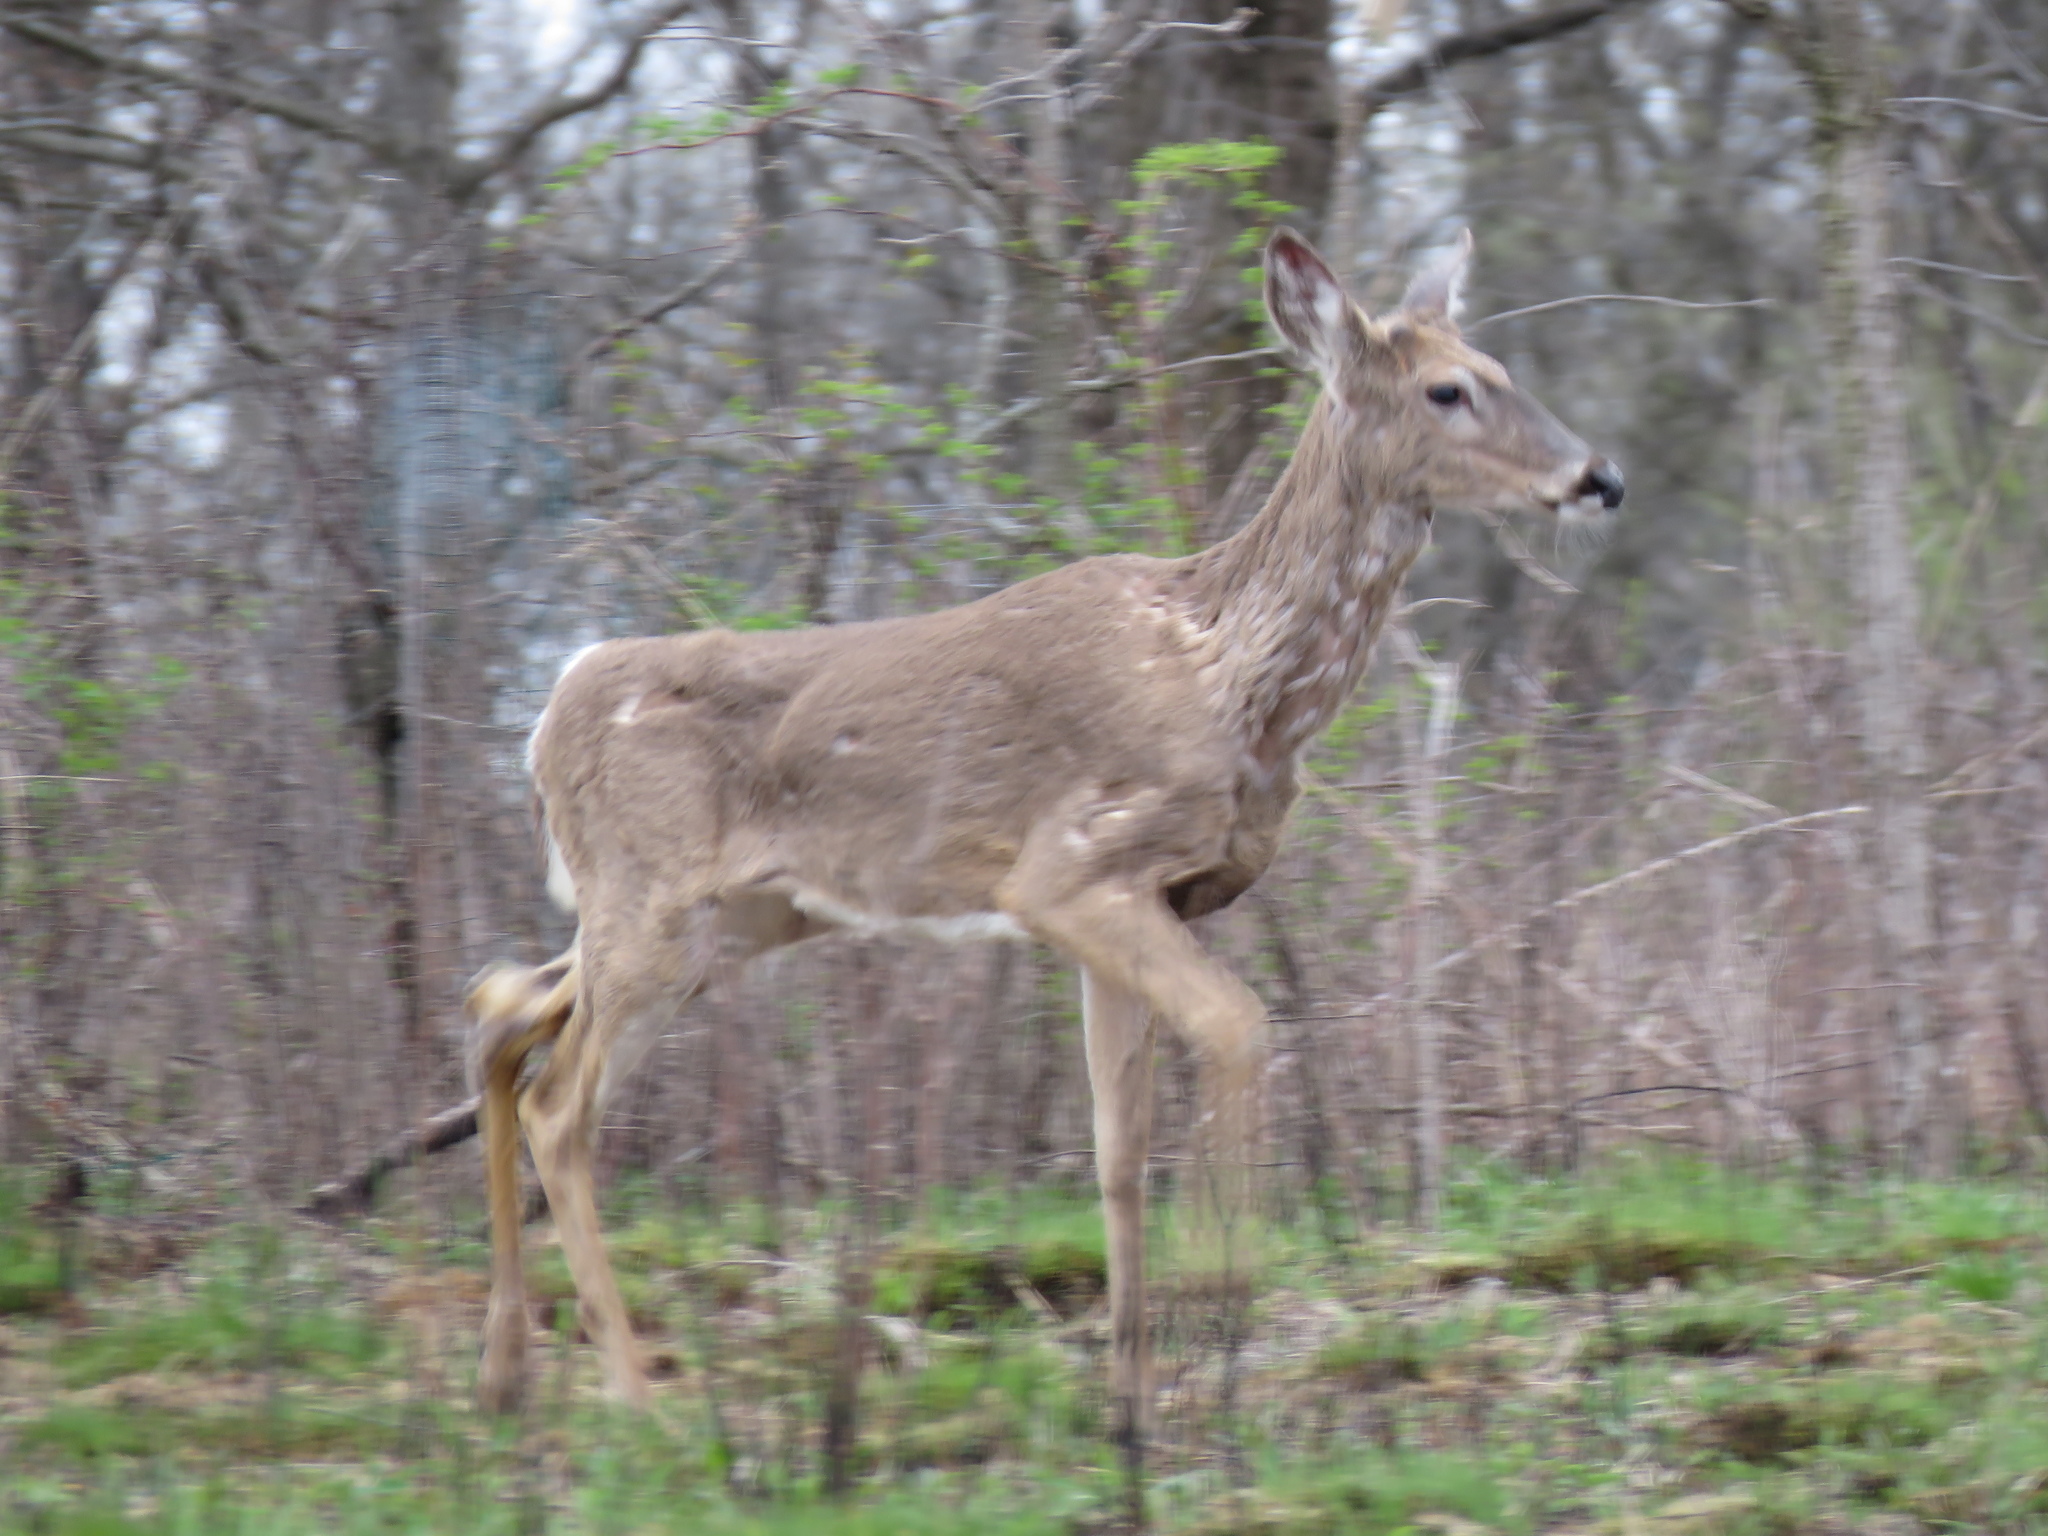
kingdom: Animalia
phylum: Chordata
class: Mammalia
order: Artiodactyla
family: Cervidae
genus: Odocoileus
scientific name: Odocoileus virginianus
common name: White-tailed deer
